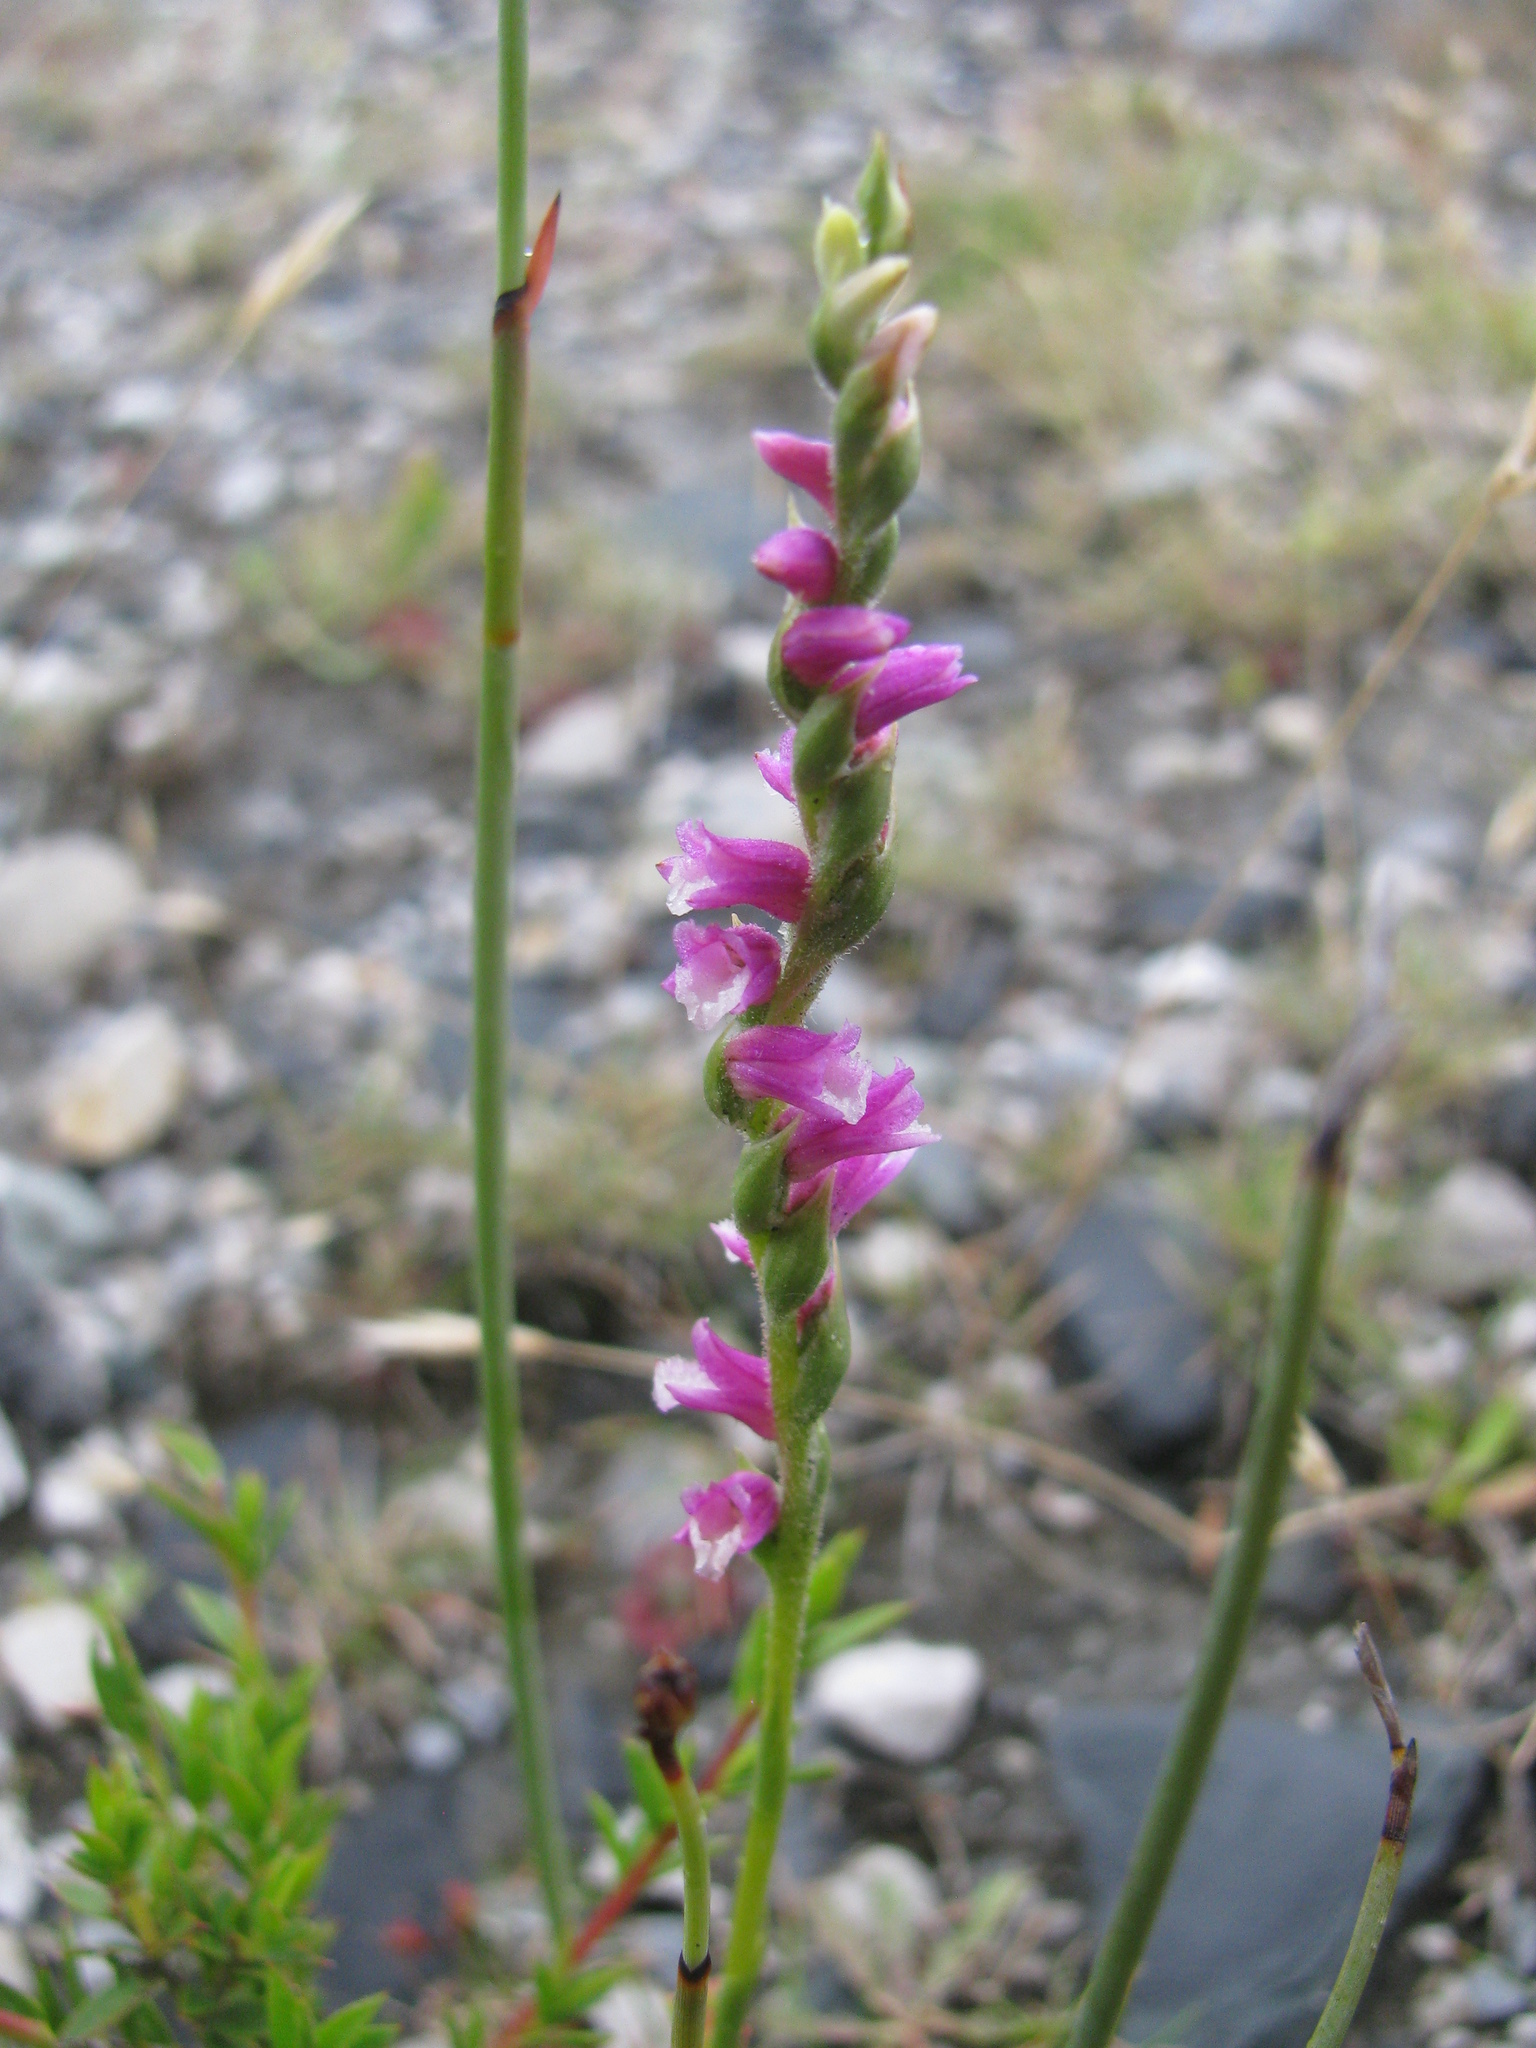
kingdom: Plantae
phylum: Tracheophyta
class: Liliopsida
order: Asparagales
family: Orchidaceae
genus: Spiranthes
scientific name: Spiranthes australis
